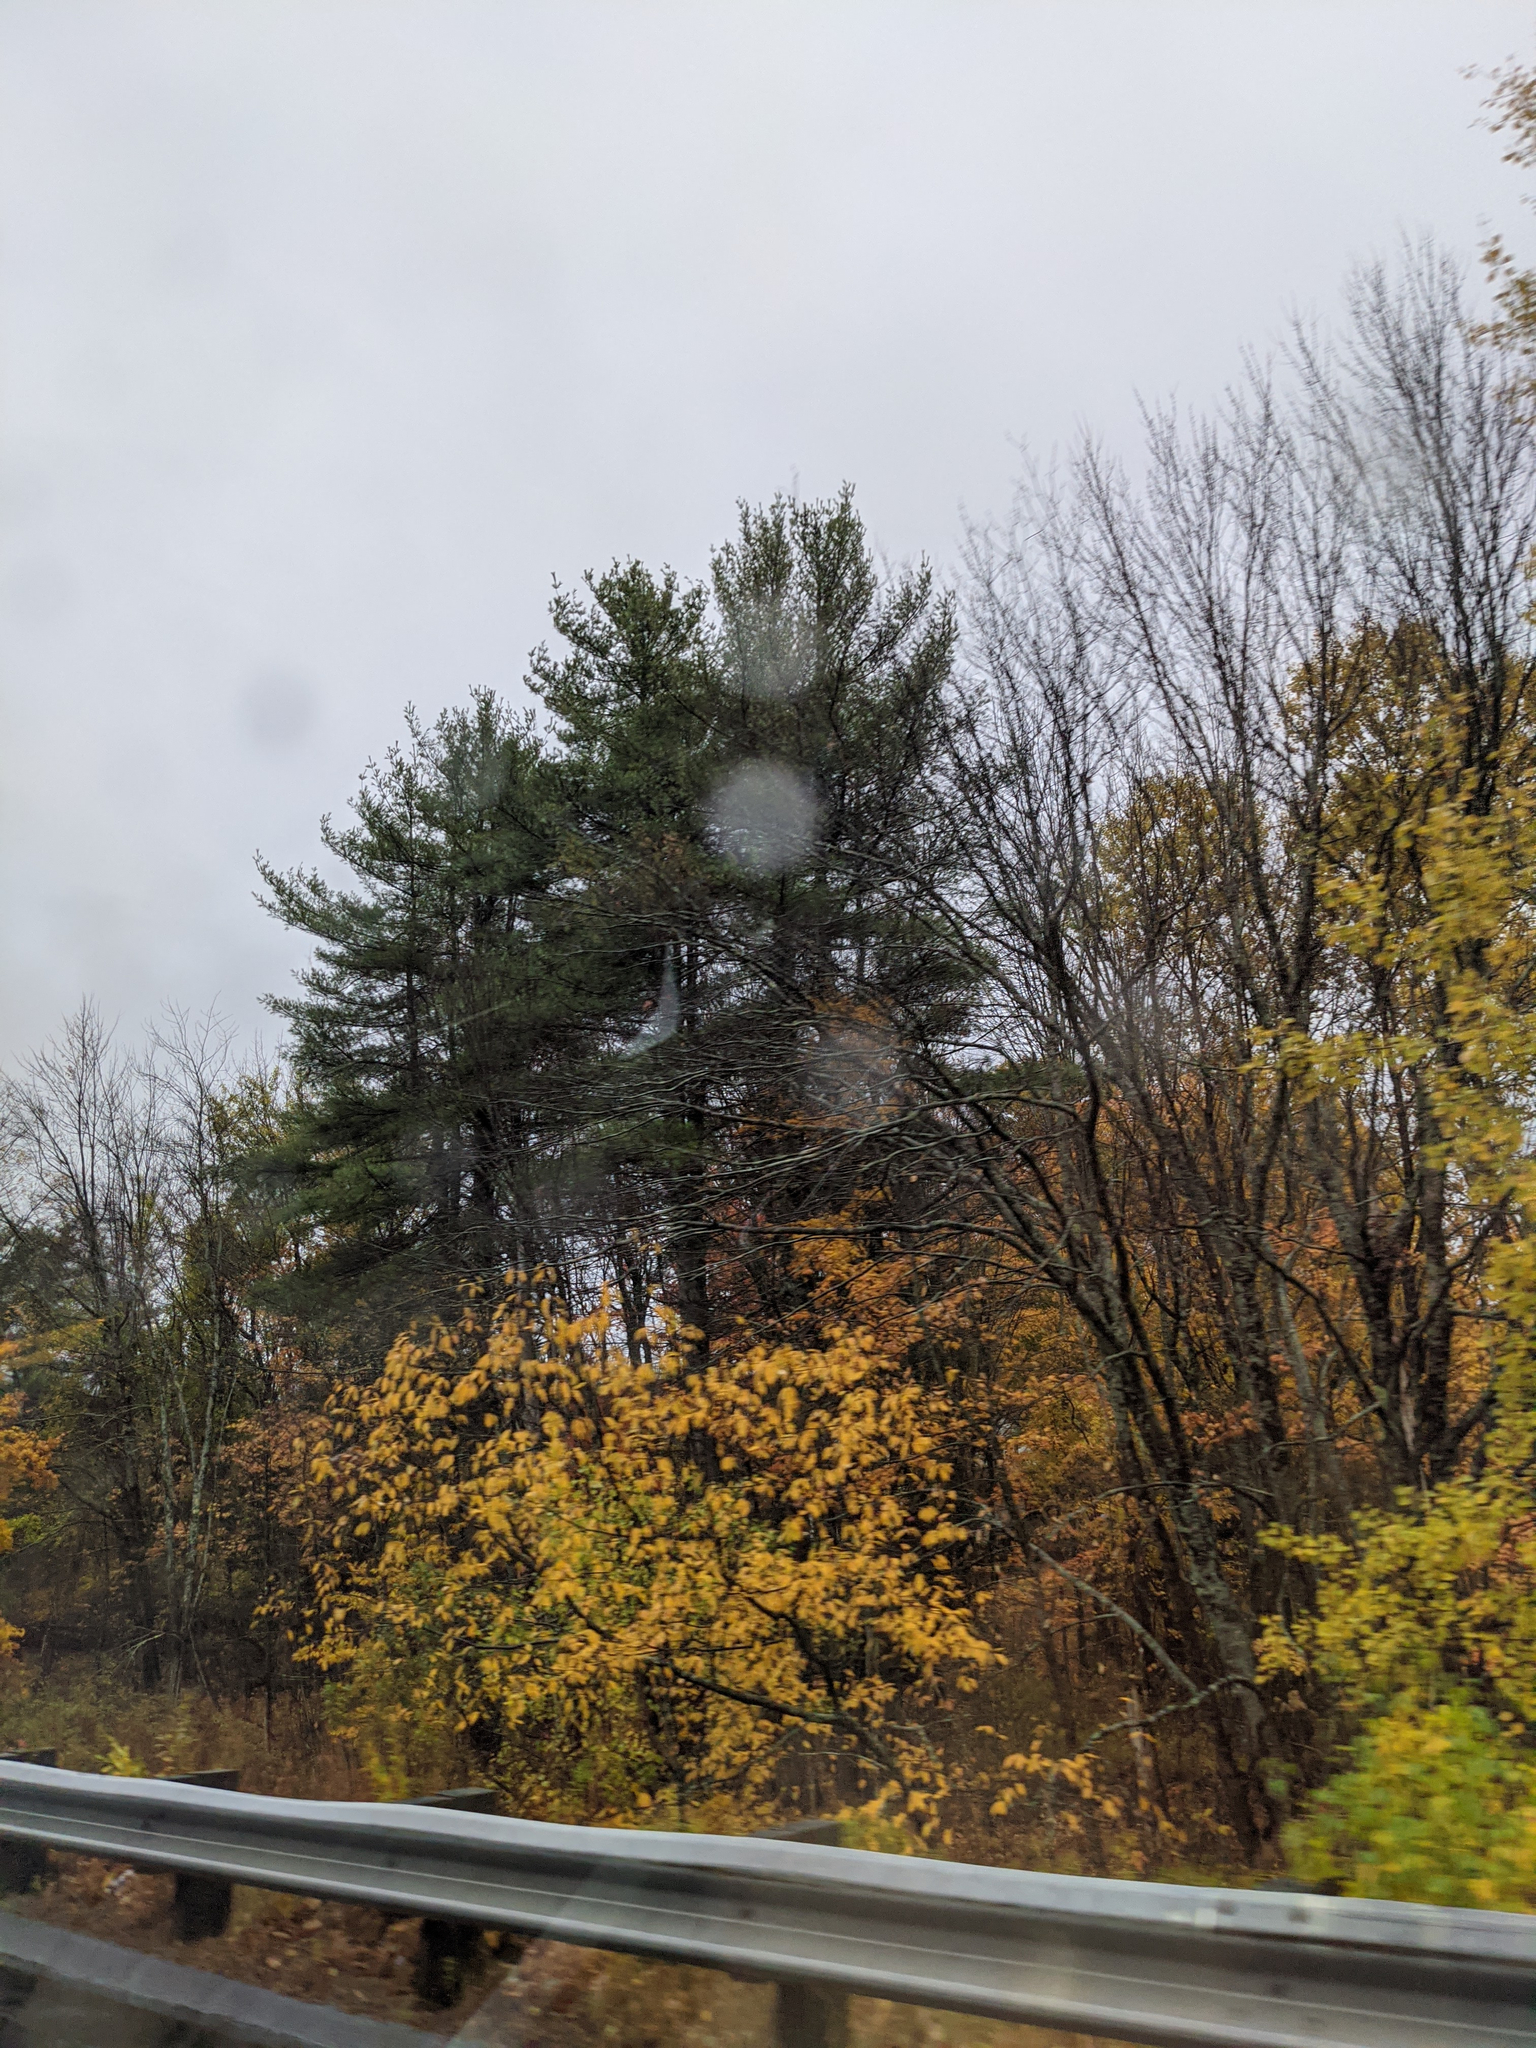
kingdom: Plantae
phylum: Tracheophyta
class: Pinopsida
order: Pinales
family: Pinaceae
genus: Pinus
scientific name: Pinus strobus
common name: Weymouth pine
